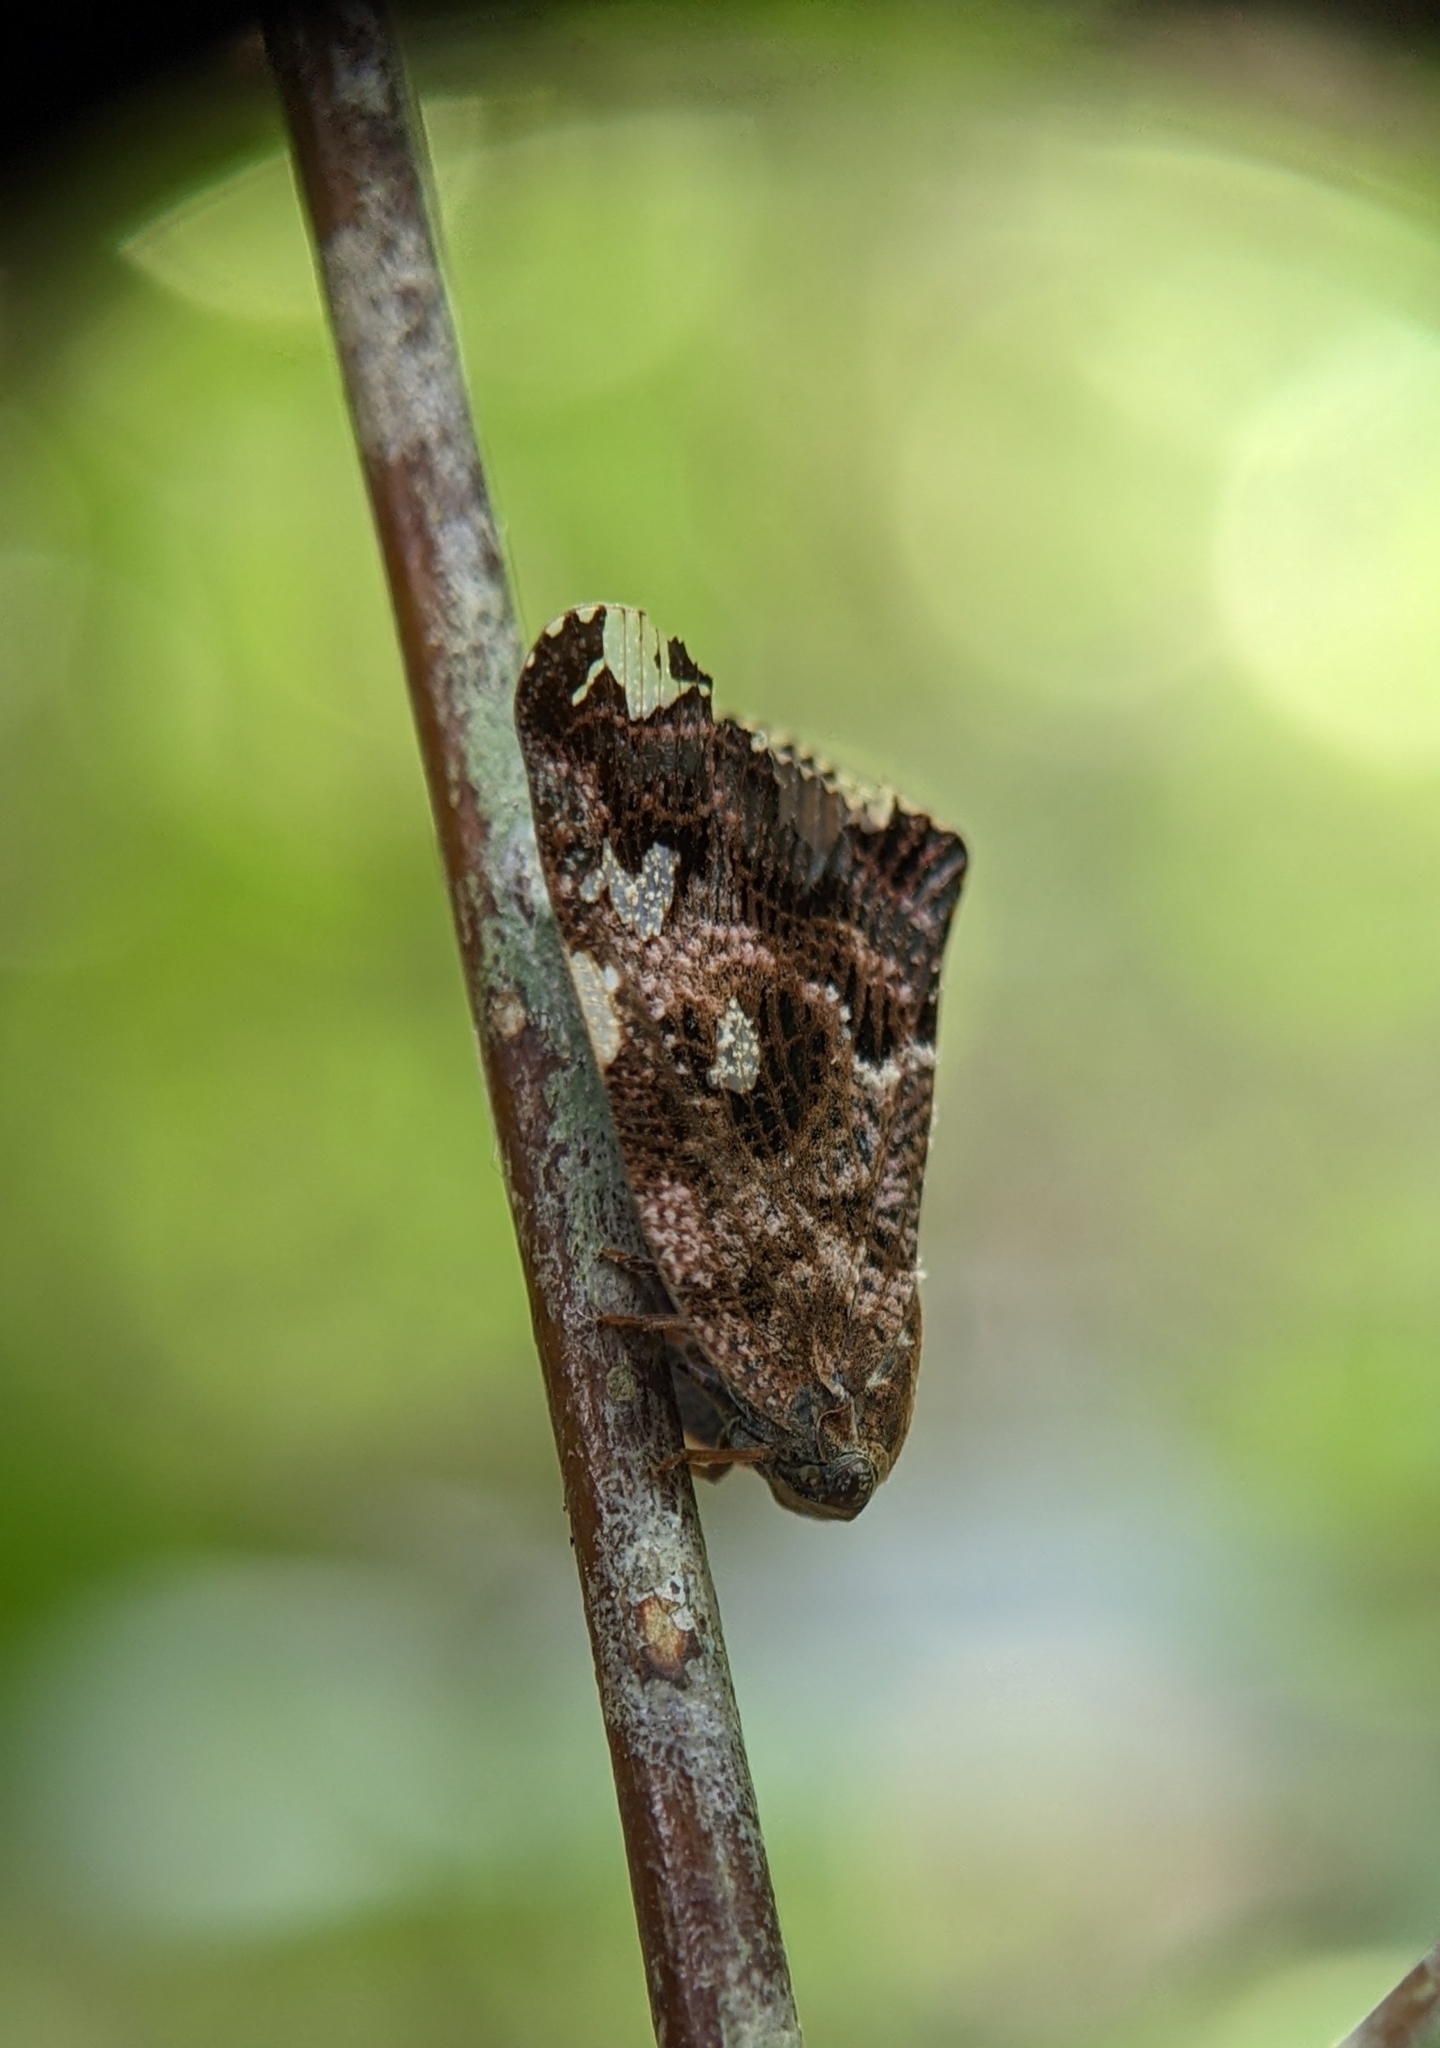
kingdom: Animalia
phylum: Arthropoda
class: Insecta
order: Hemiptera
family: Ricaniidae
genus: Ricania
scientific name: Ricania speculum
